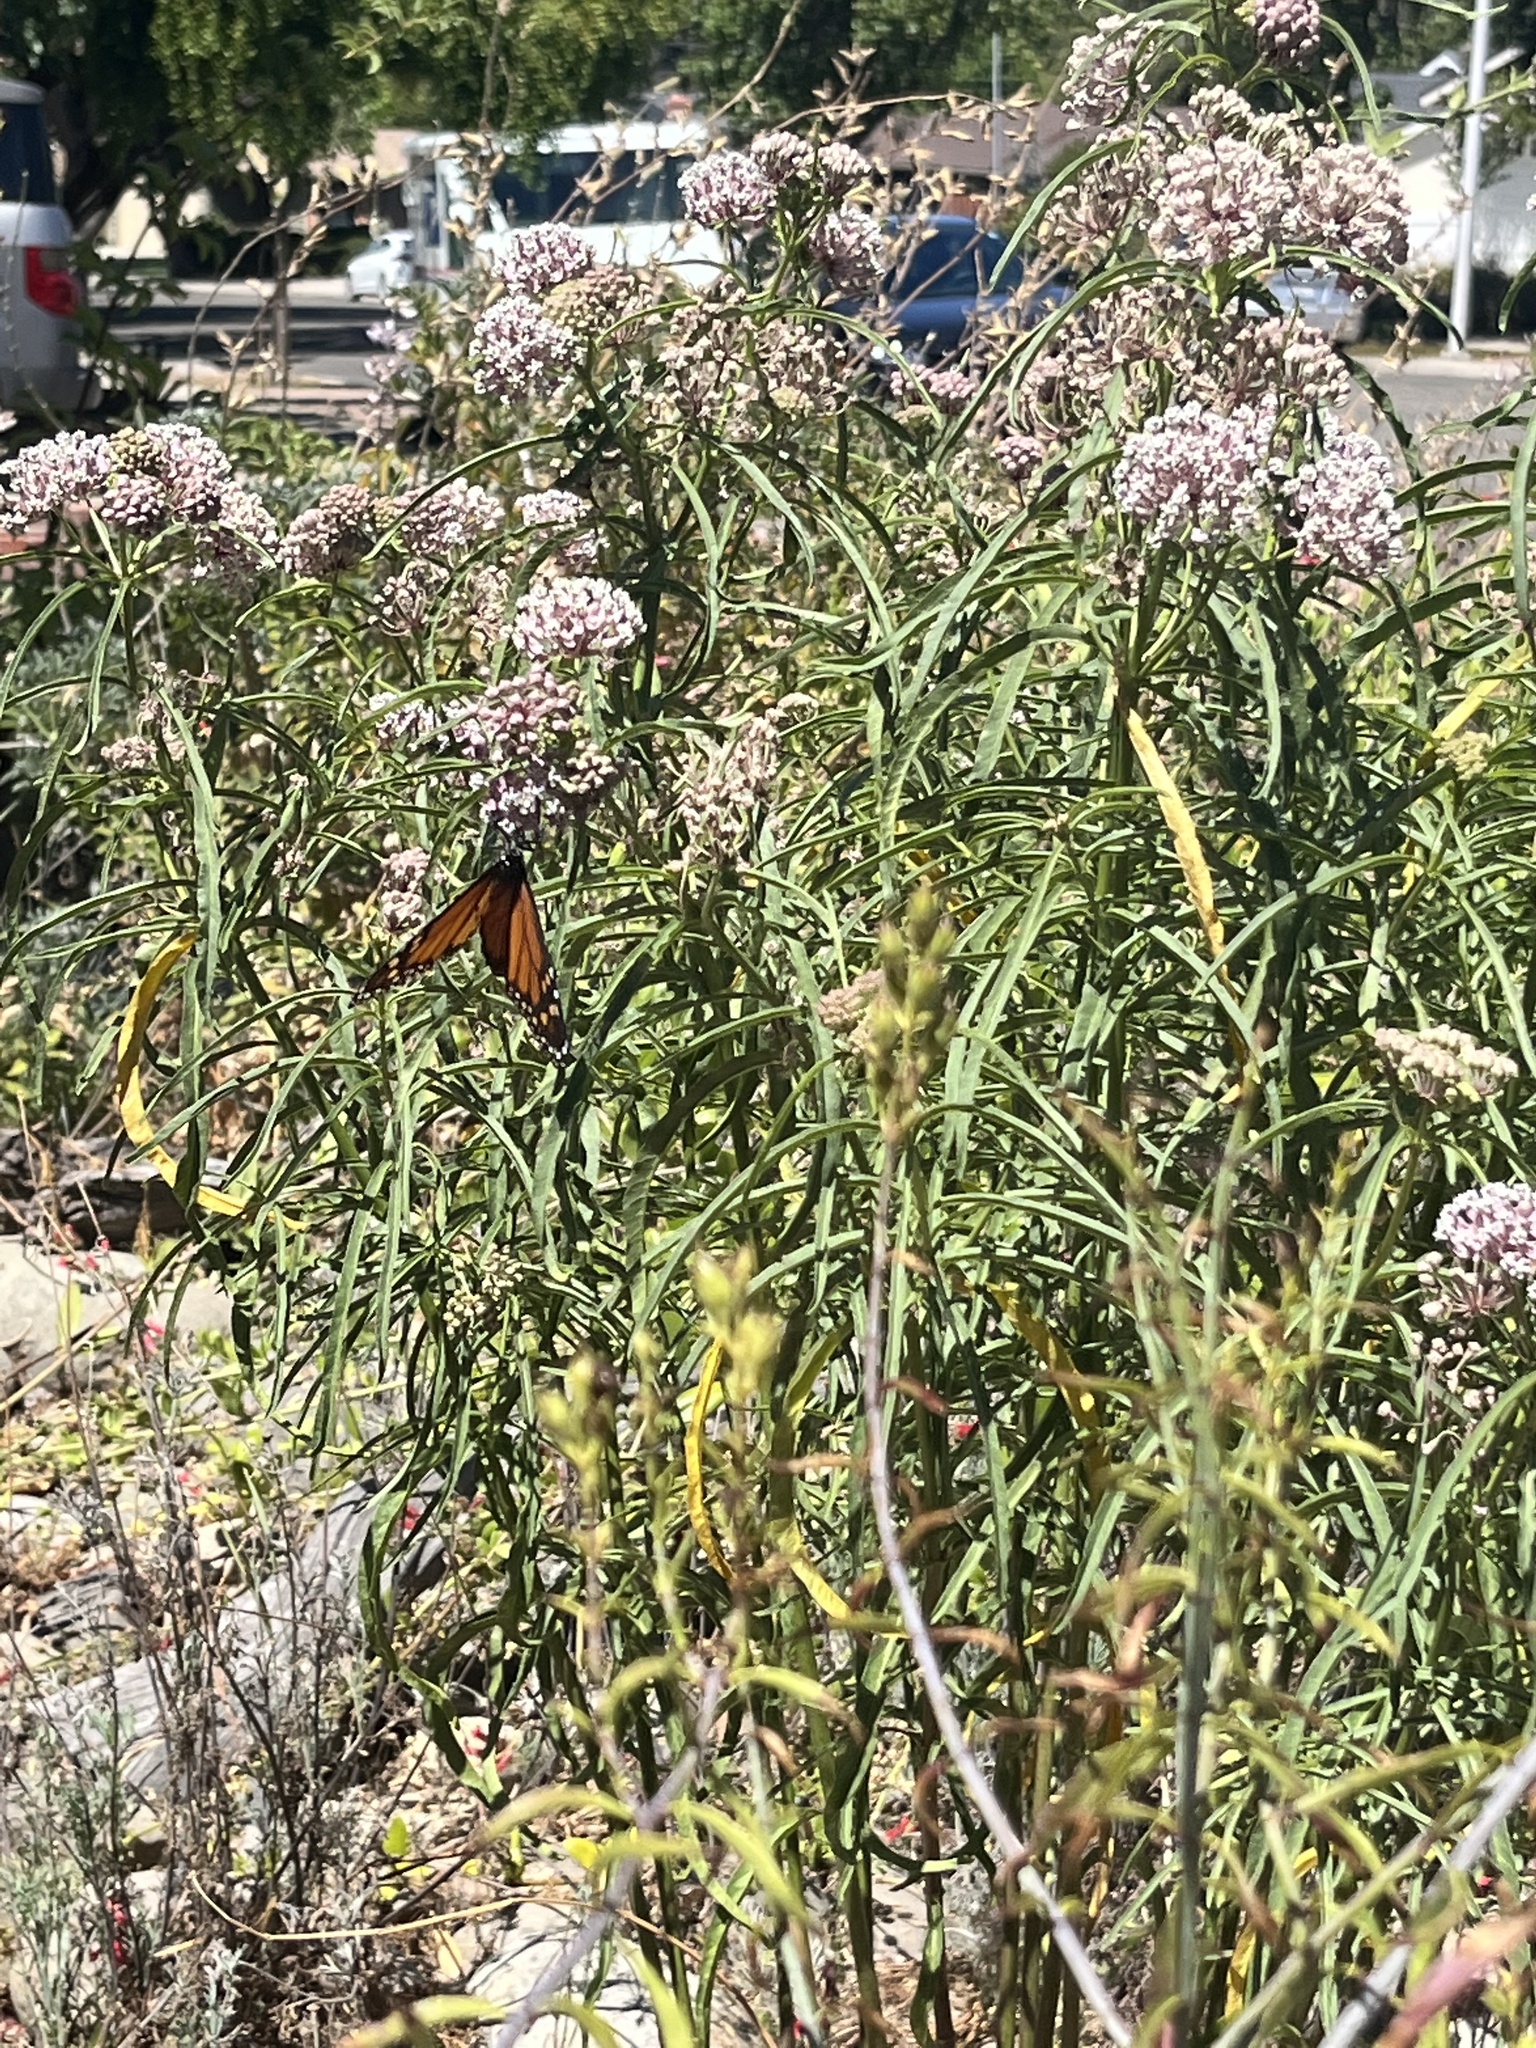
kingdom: Animalia
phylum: Arthropoda
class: Insecta
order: Lepidoptera
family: Nymphalidae
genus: Danaus
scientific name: Danaus plexippus
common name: Monarch
